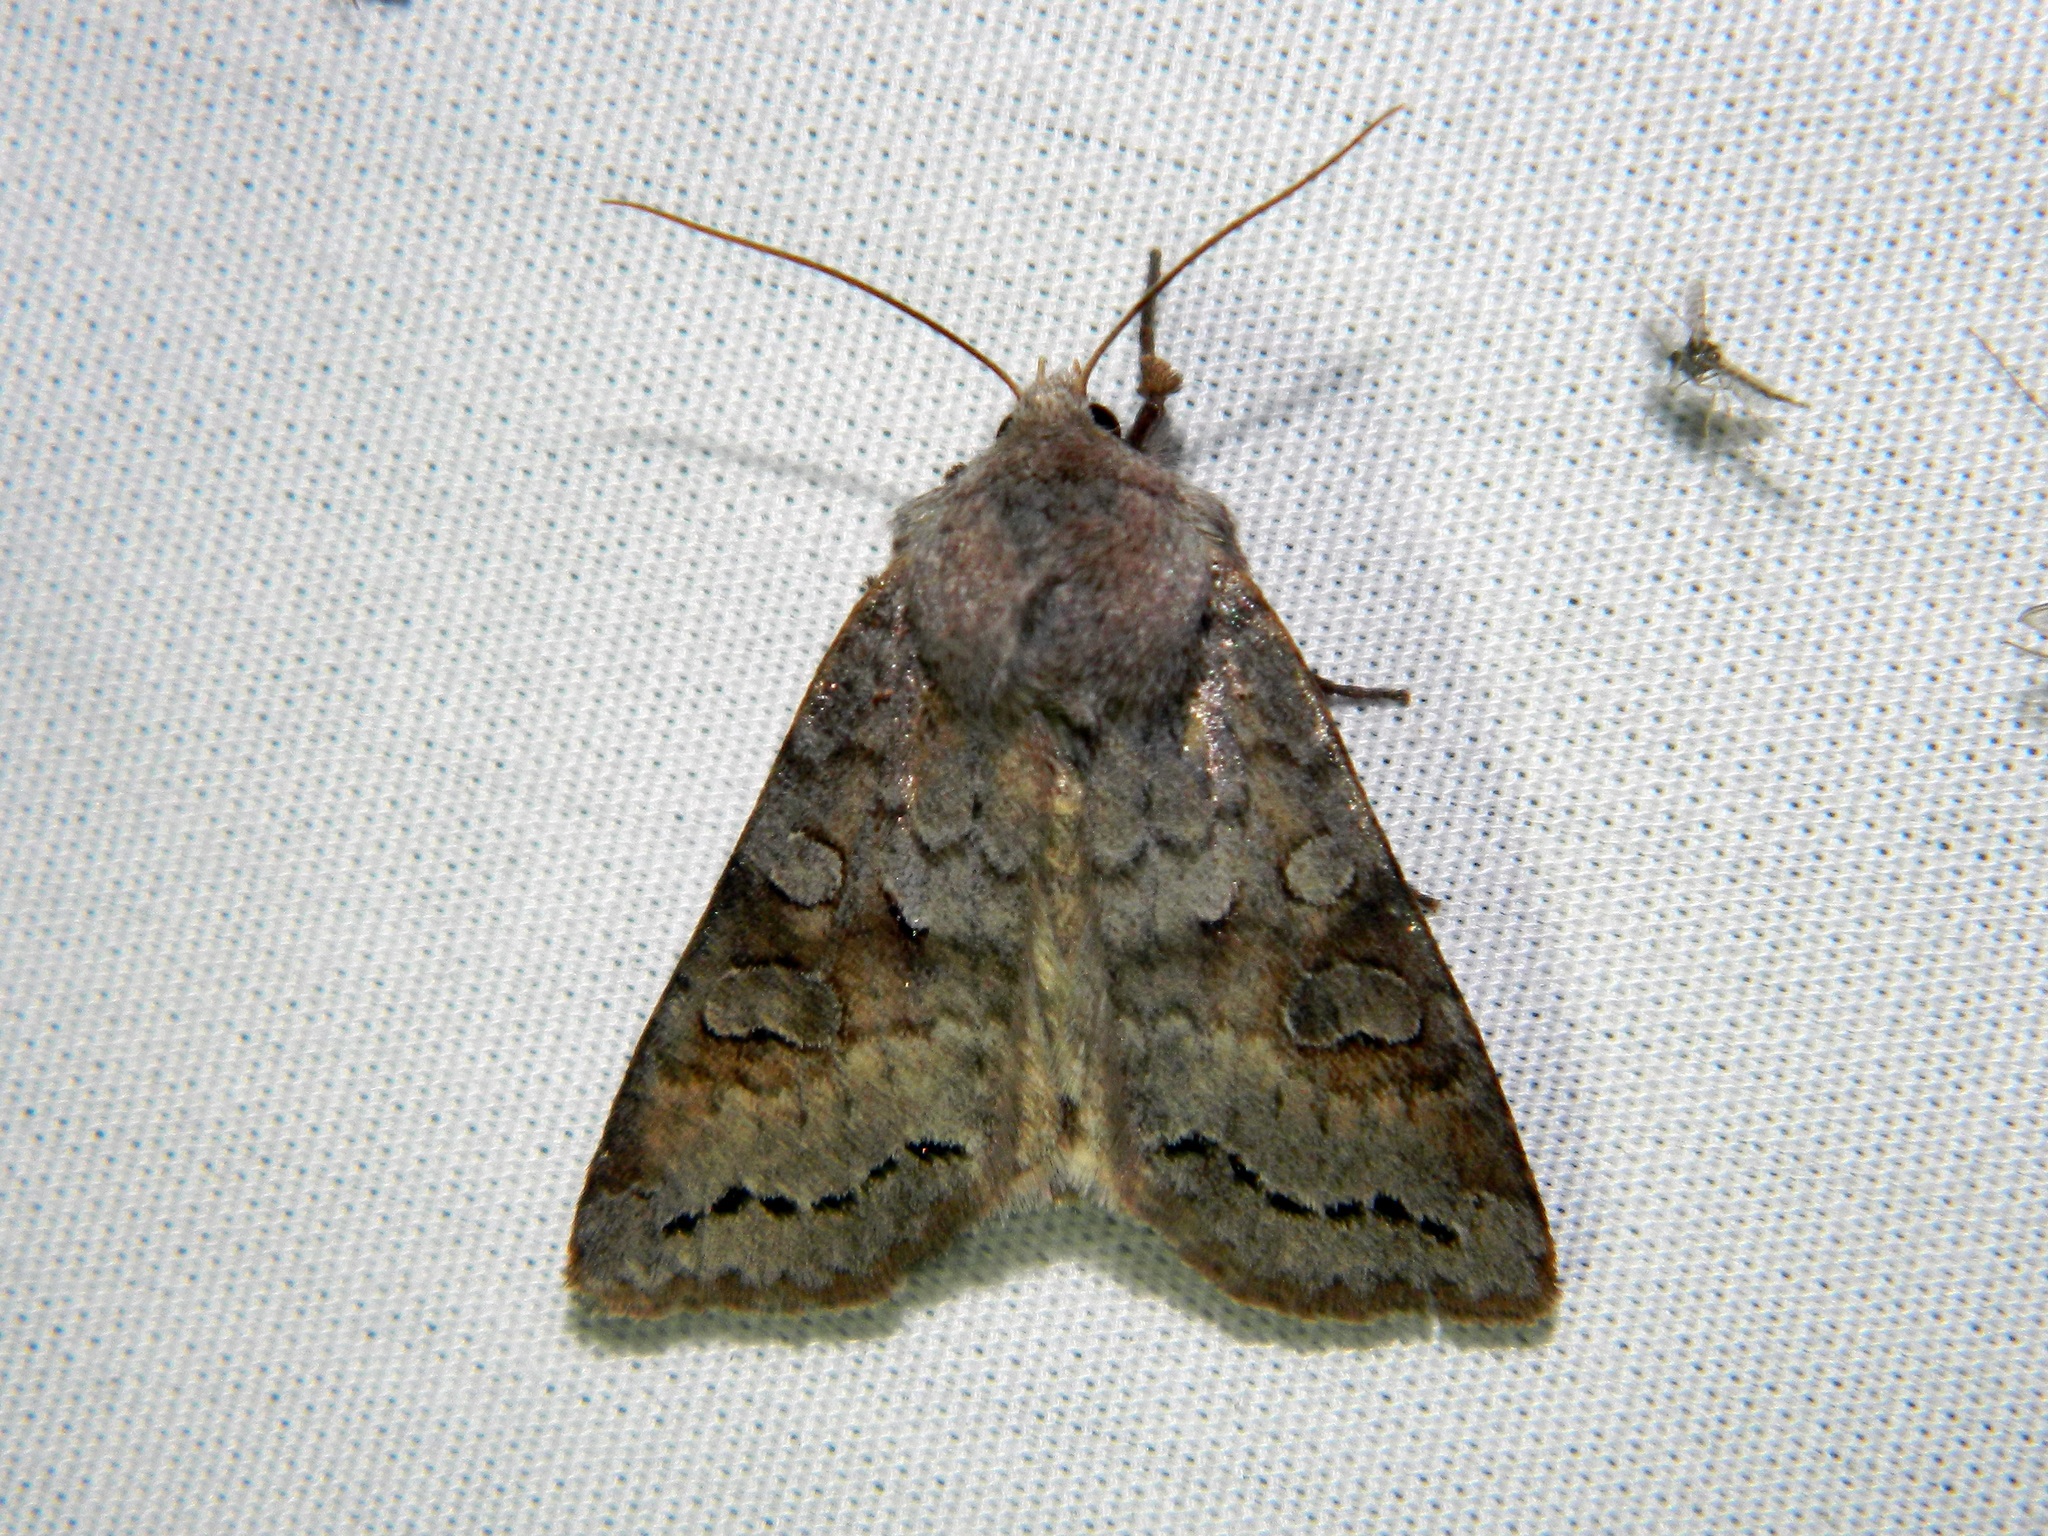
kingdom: Animalia
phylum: Arthropoda
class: Insecta
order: Lepidoptera
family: Noctuidae
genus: Orthosia
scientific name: Orthosia revicta
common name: Rusty whitesided caterpillar
